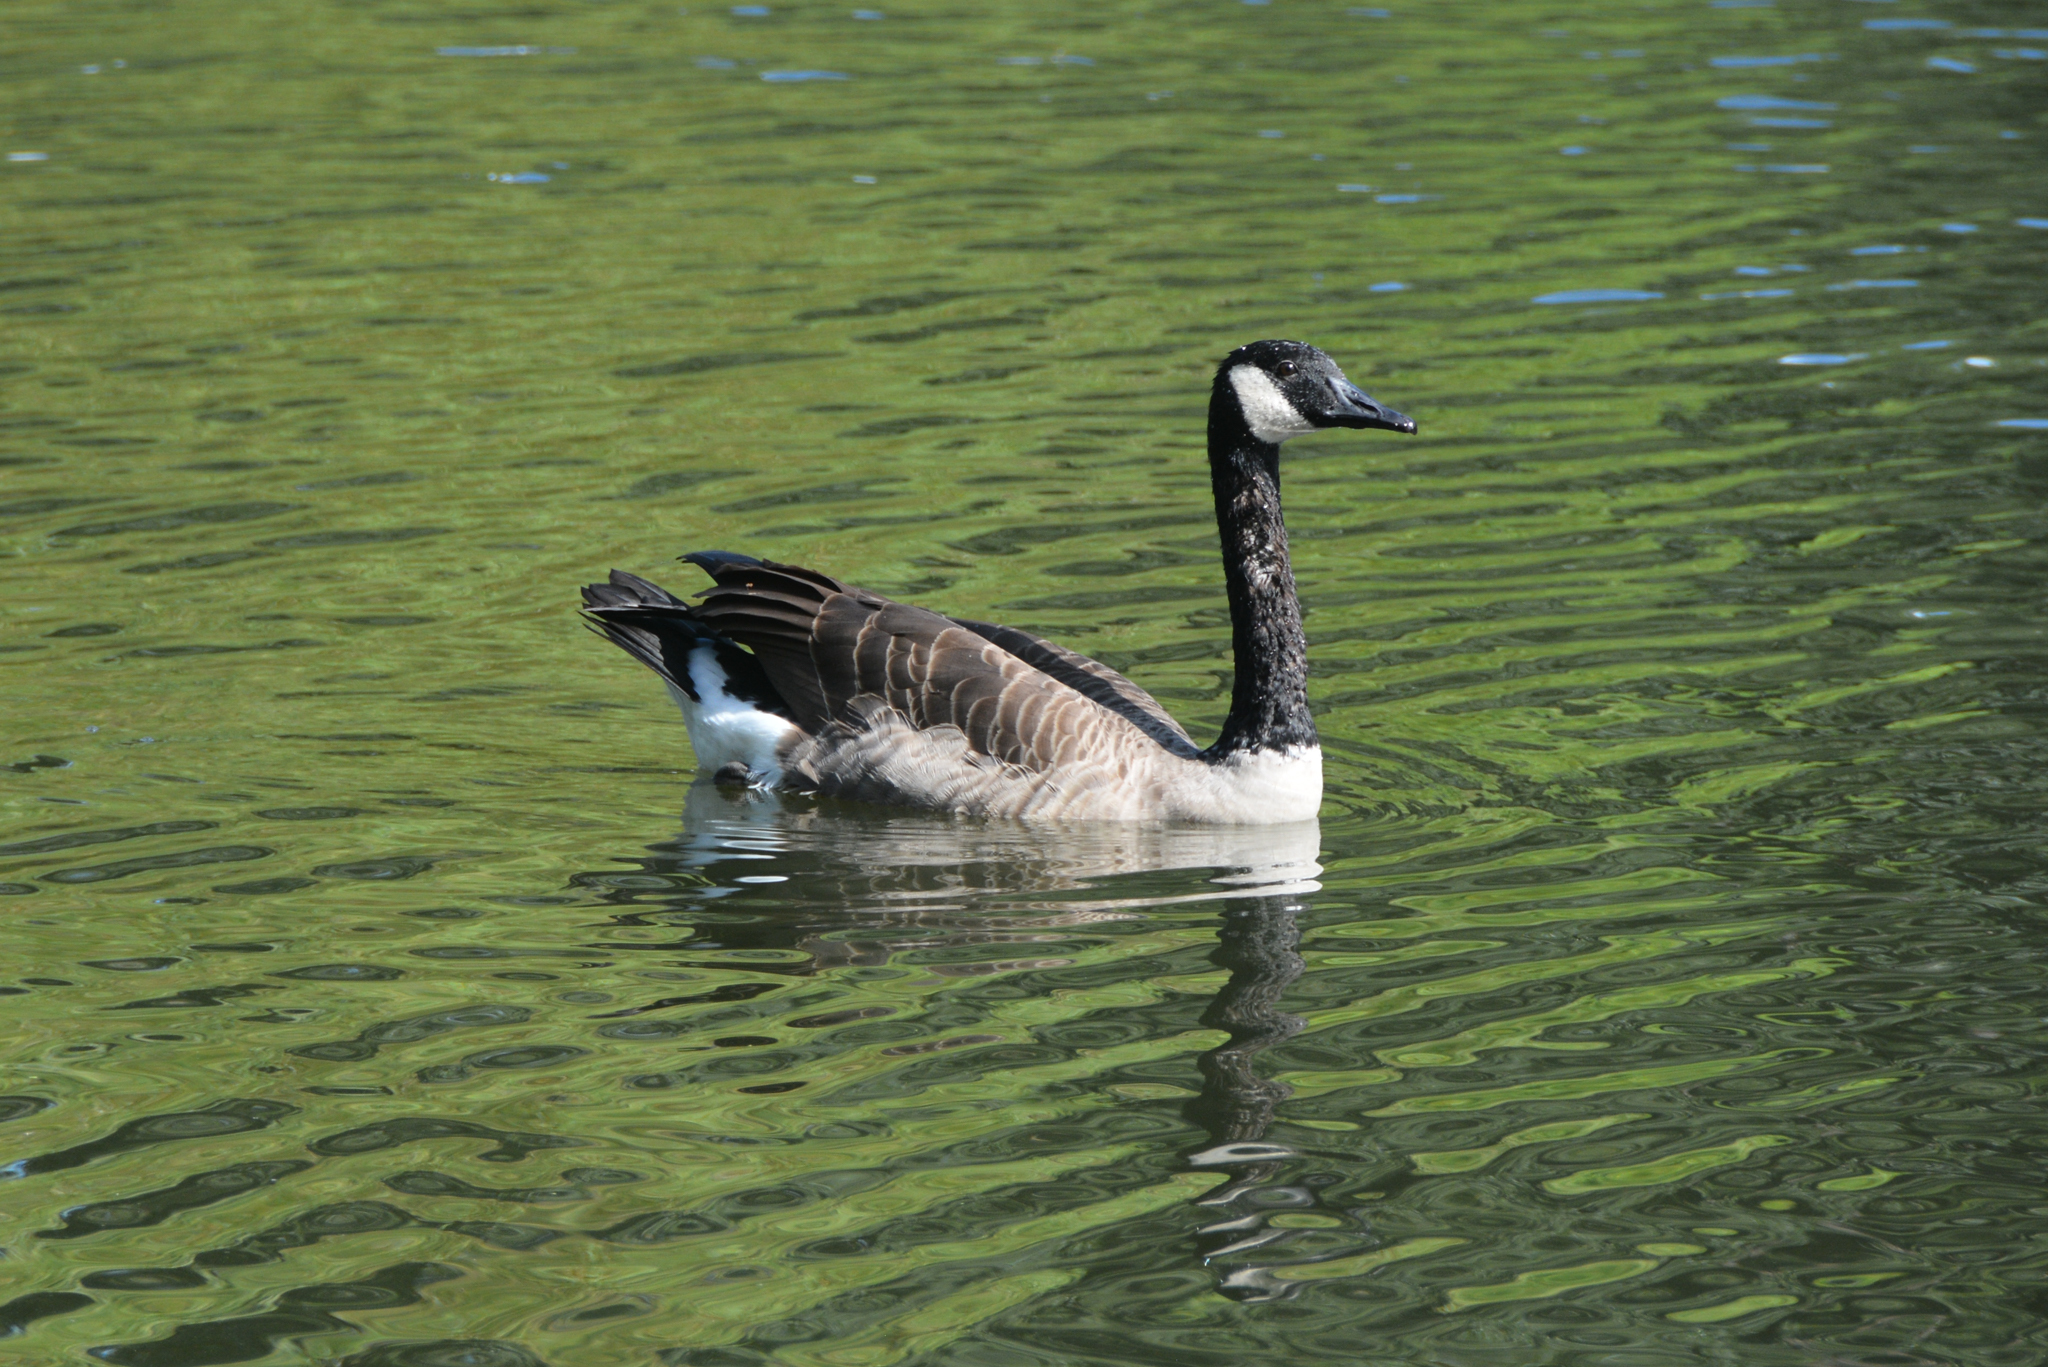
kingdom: Animalia
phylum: Chordata
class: Aves
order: Anseriformes
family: Anatidae
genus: Branta
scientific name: Branta canadensis
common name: Canada goose
